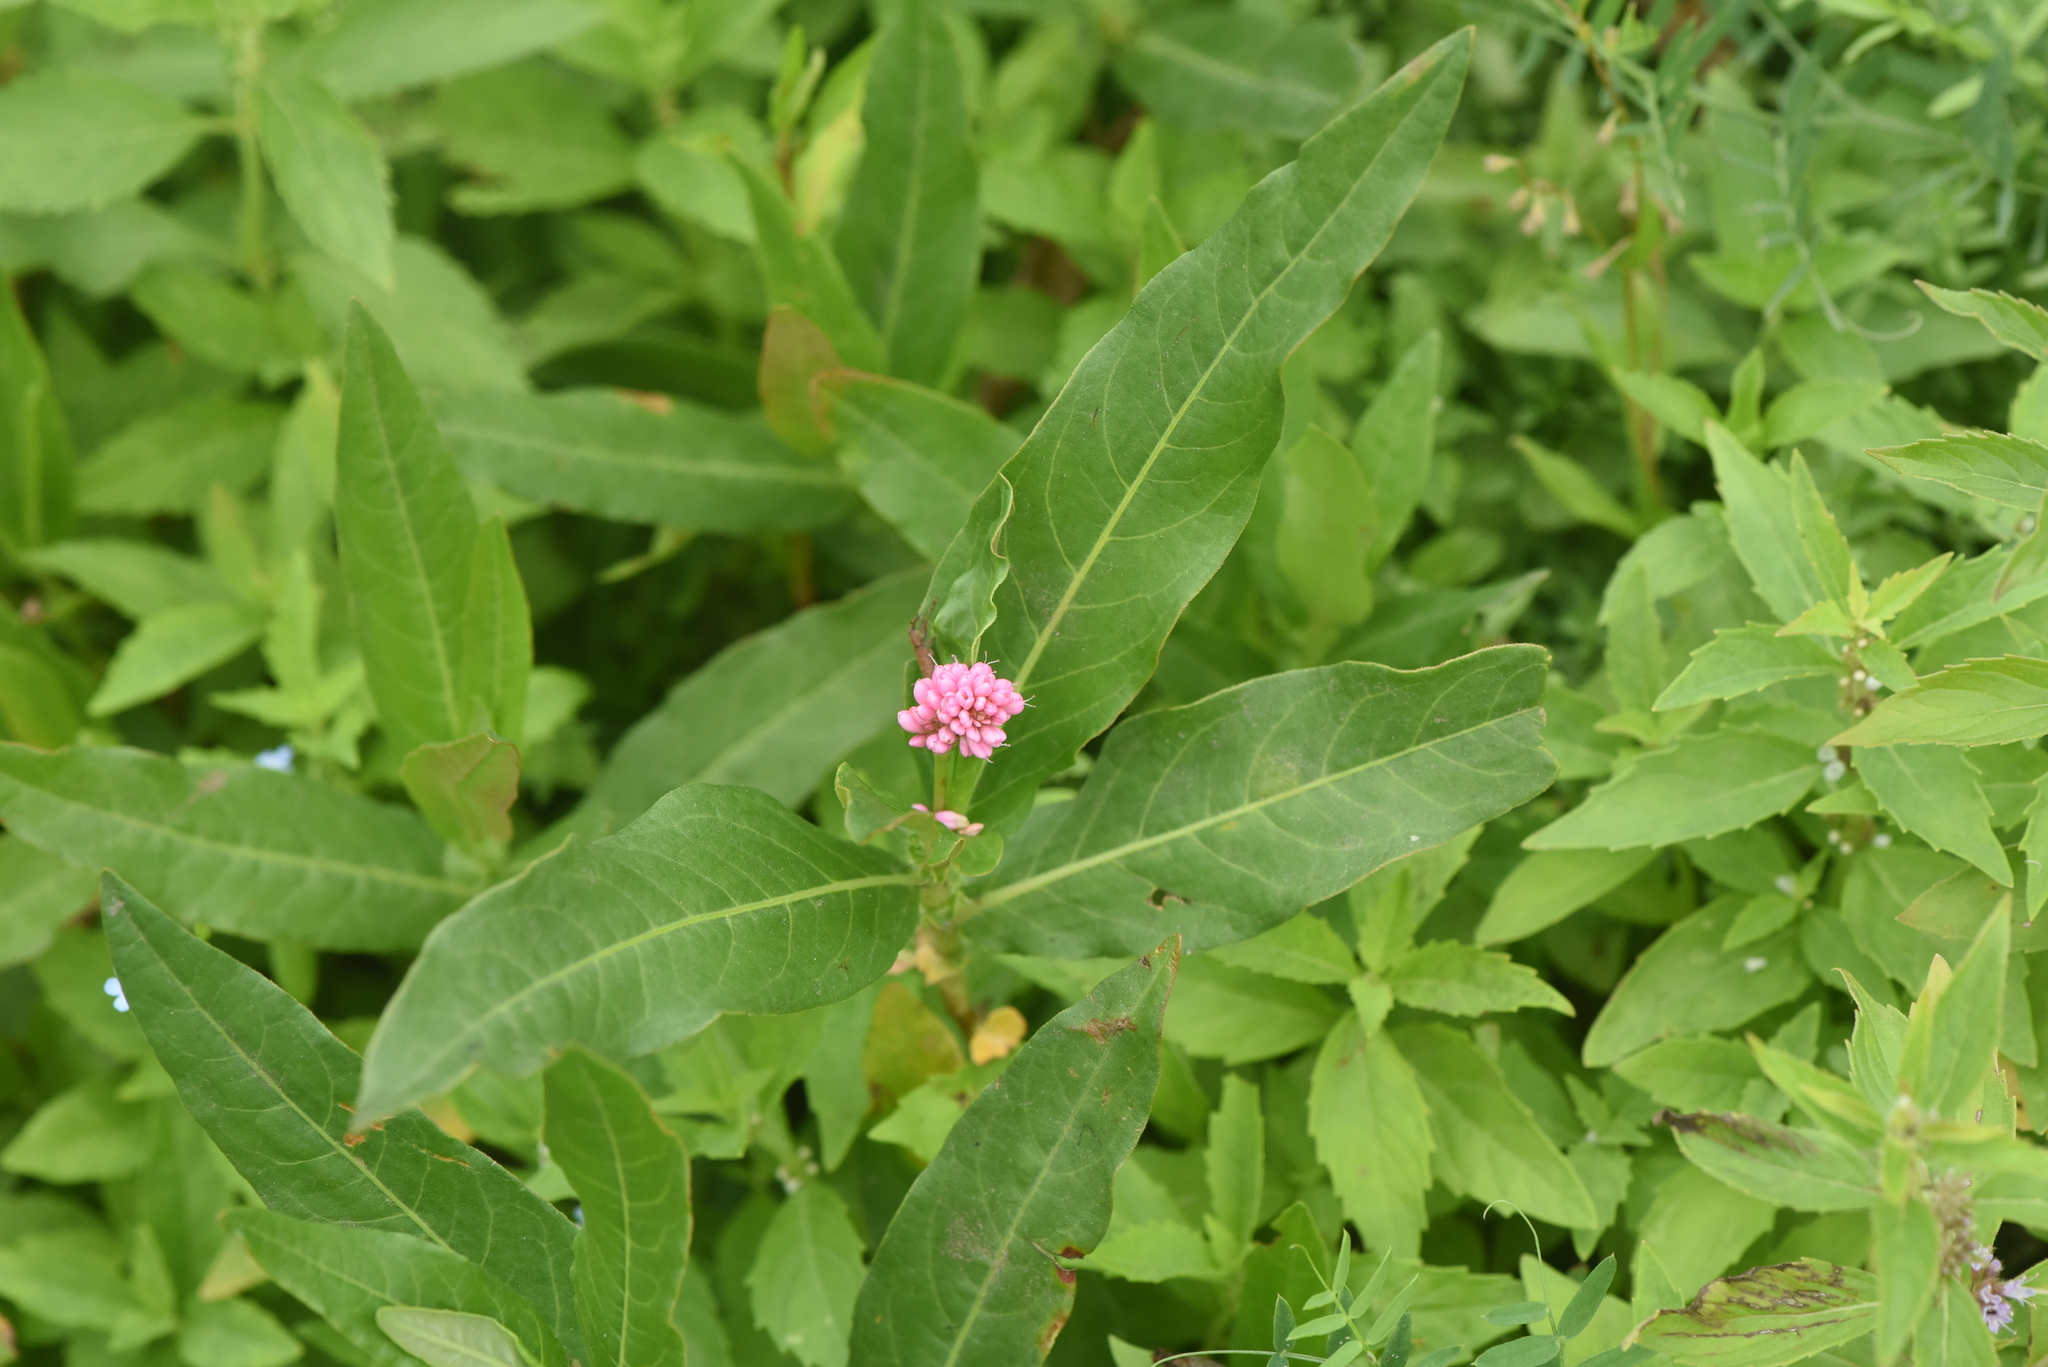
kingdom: Plantae
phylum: Tracheophyta
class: Magnoliopsida
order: Caryophyllales
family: Polygonaceae
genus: Persicaria
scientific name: Persicaria amphibia
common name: Amphibious bistort
